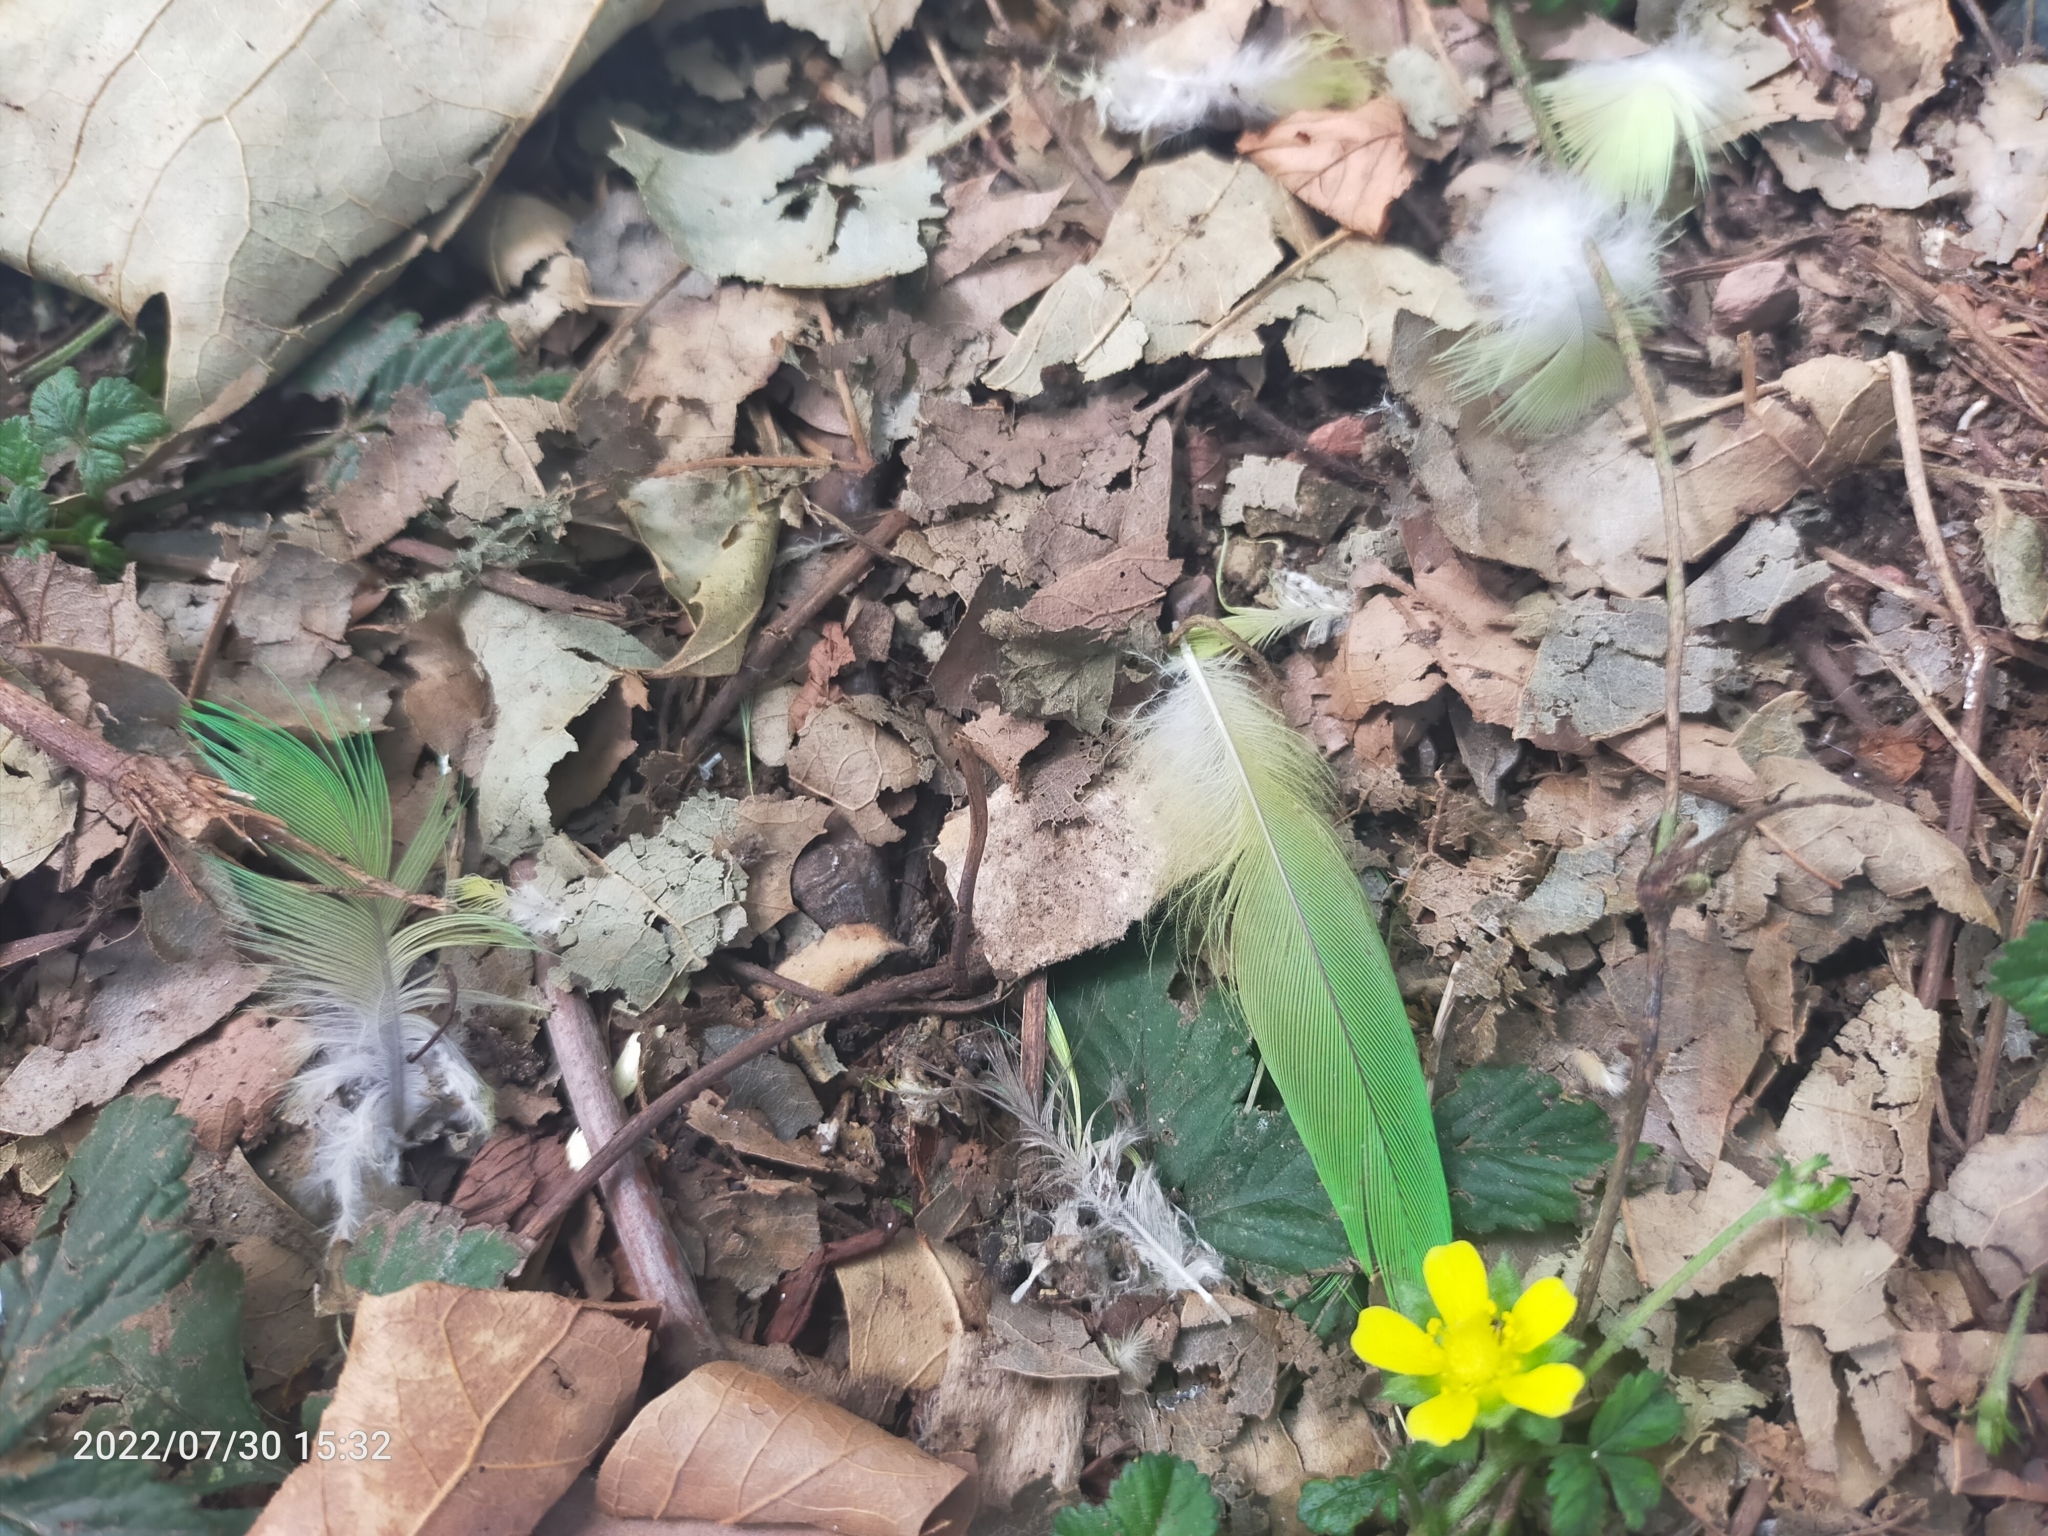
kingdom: Animalia
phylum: Chordata
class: Aves
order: Psittaciformes
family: Psittacidae
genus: Psittacula
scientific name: Psittacula
